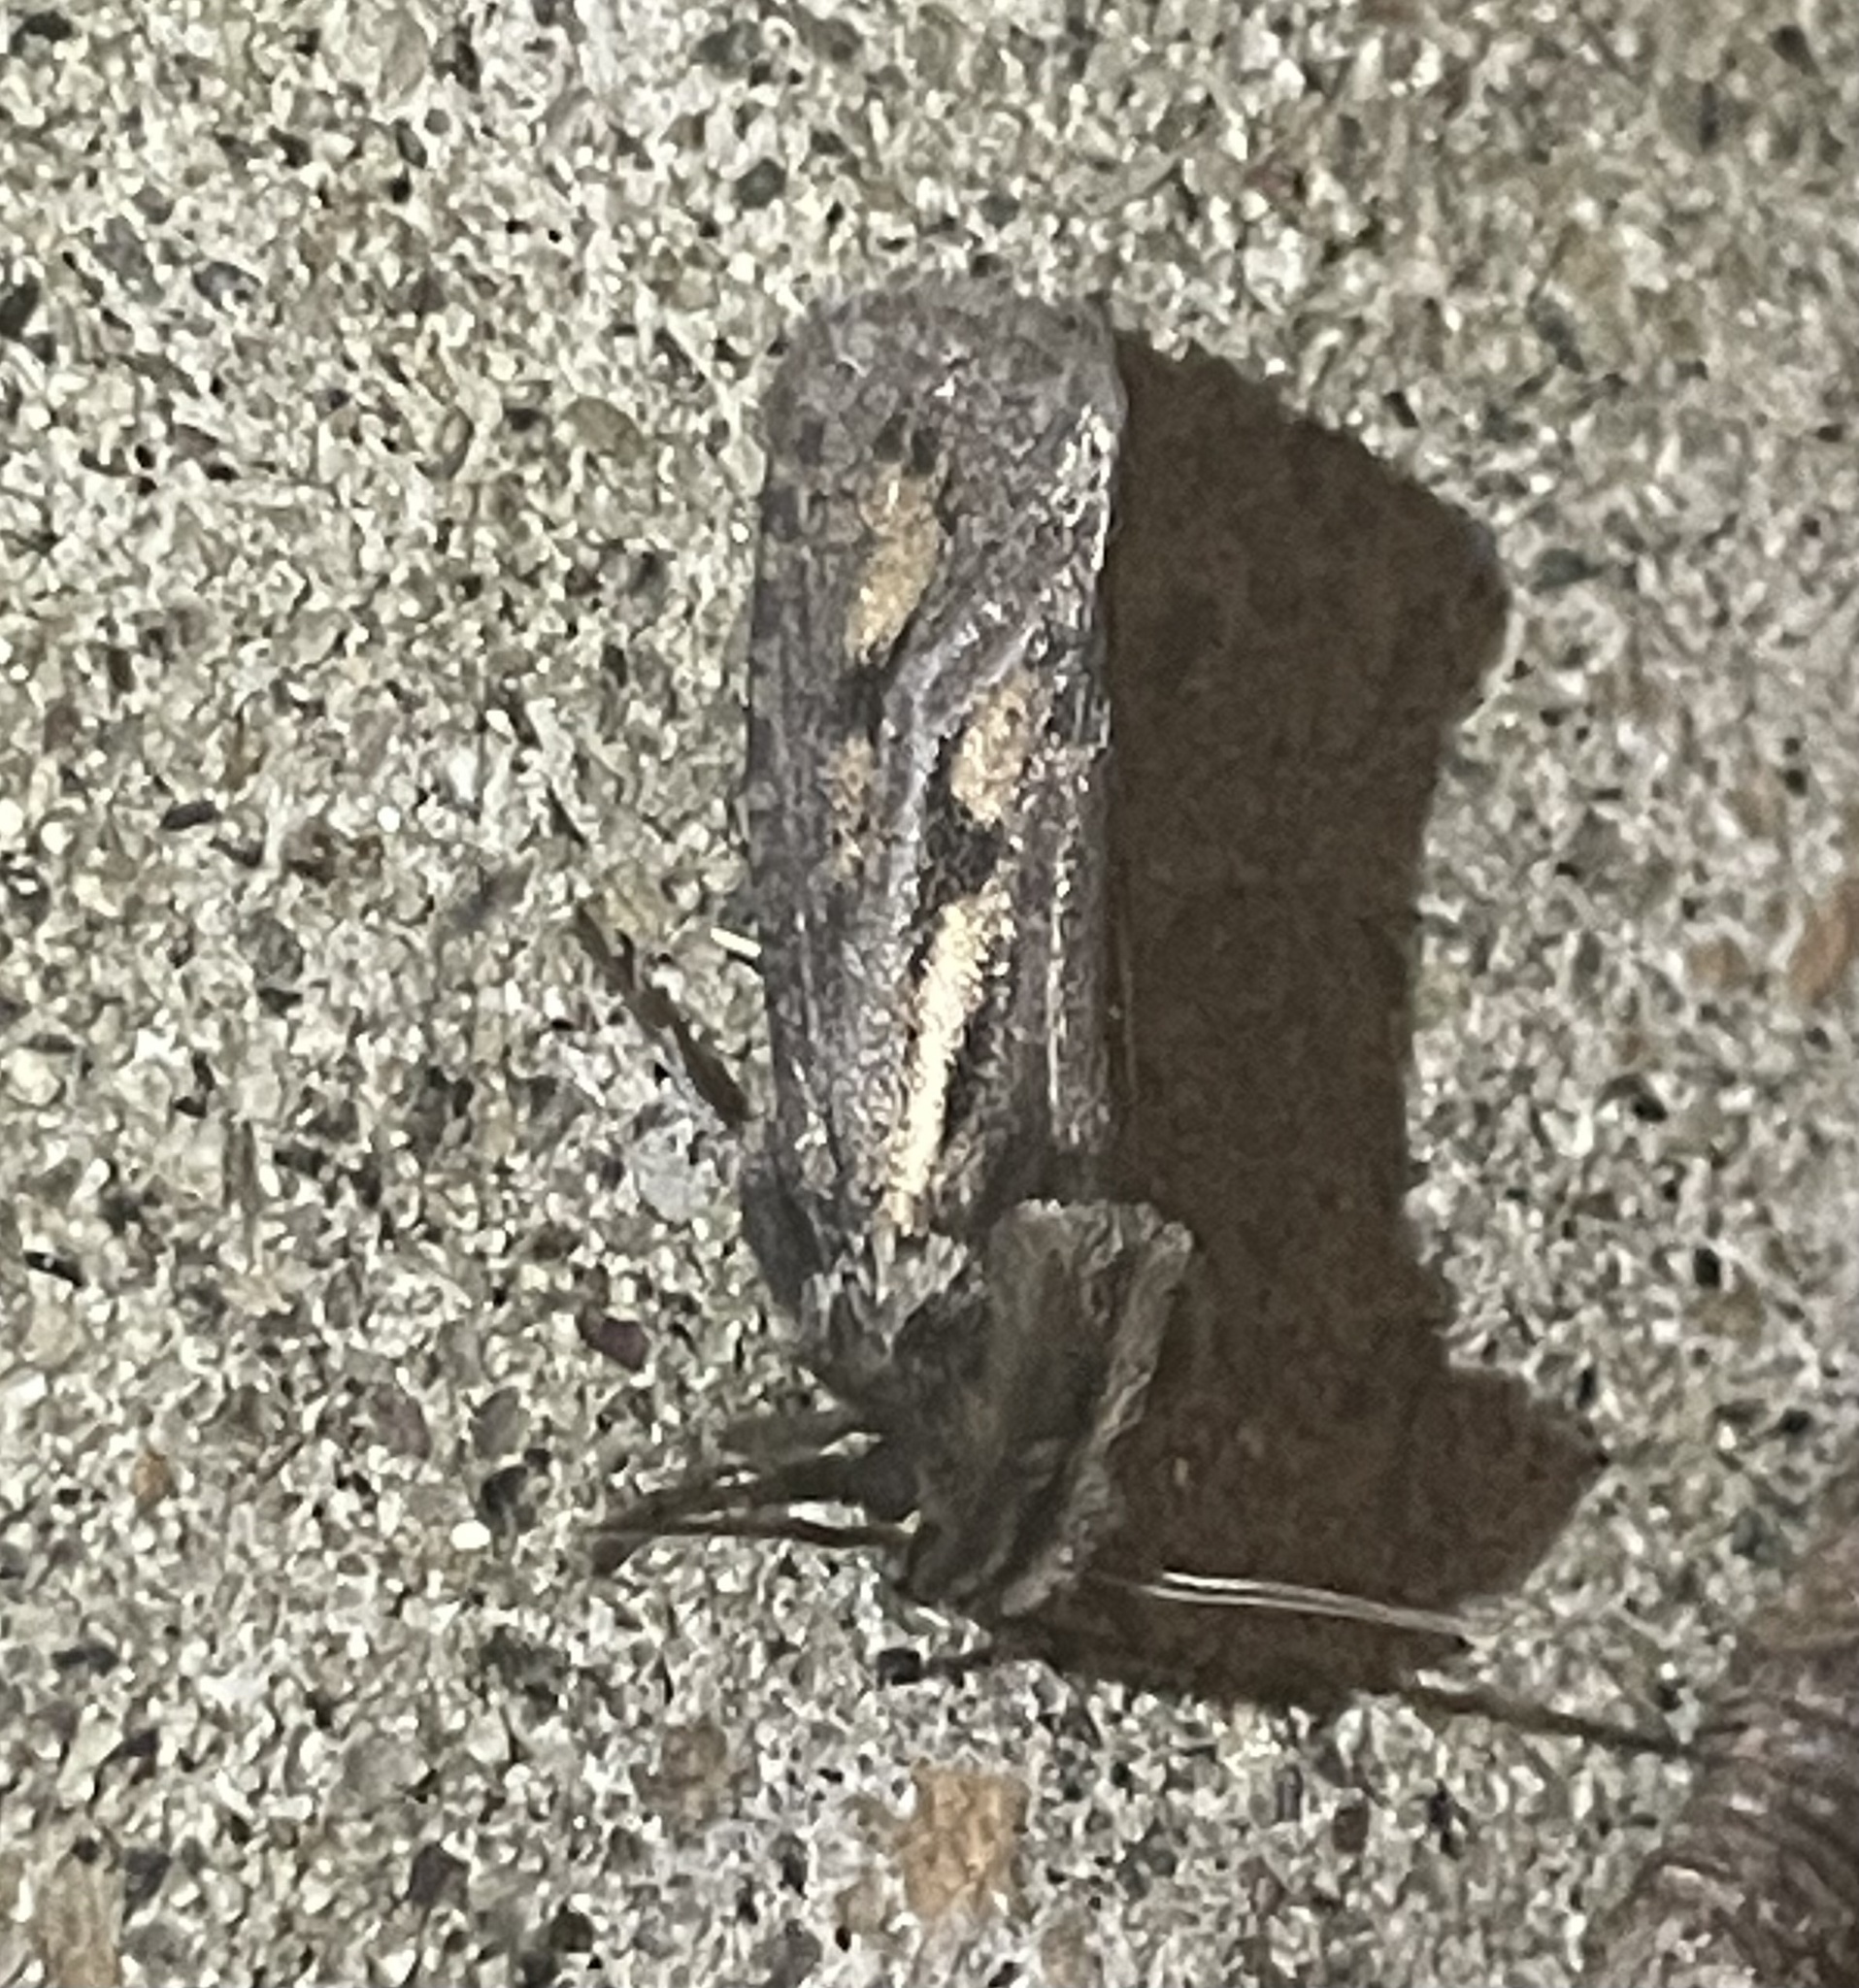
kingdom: Animalia
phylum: Arthropoda
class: Insecta
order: Lepidoptera
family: Tineidae
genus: Acrolophus
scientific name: Acrolophus popeanella
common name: Clemens' grass tubeworm moth
